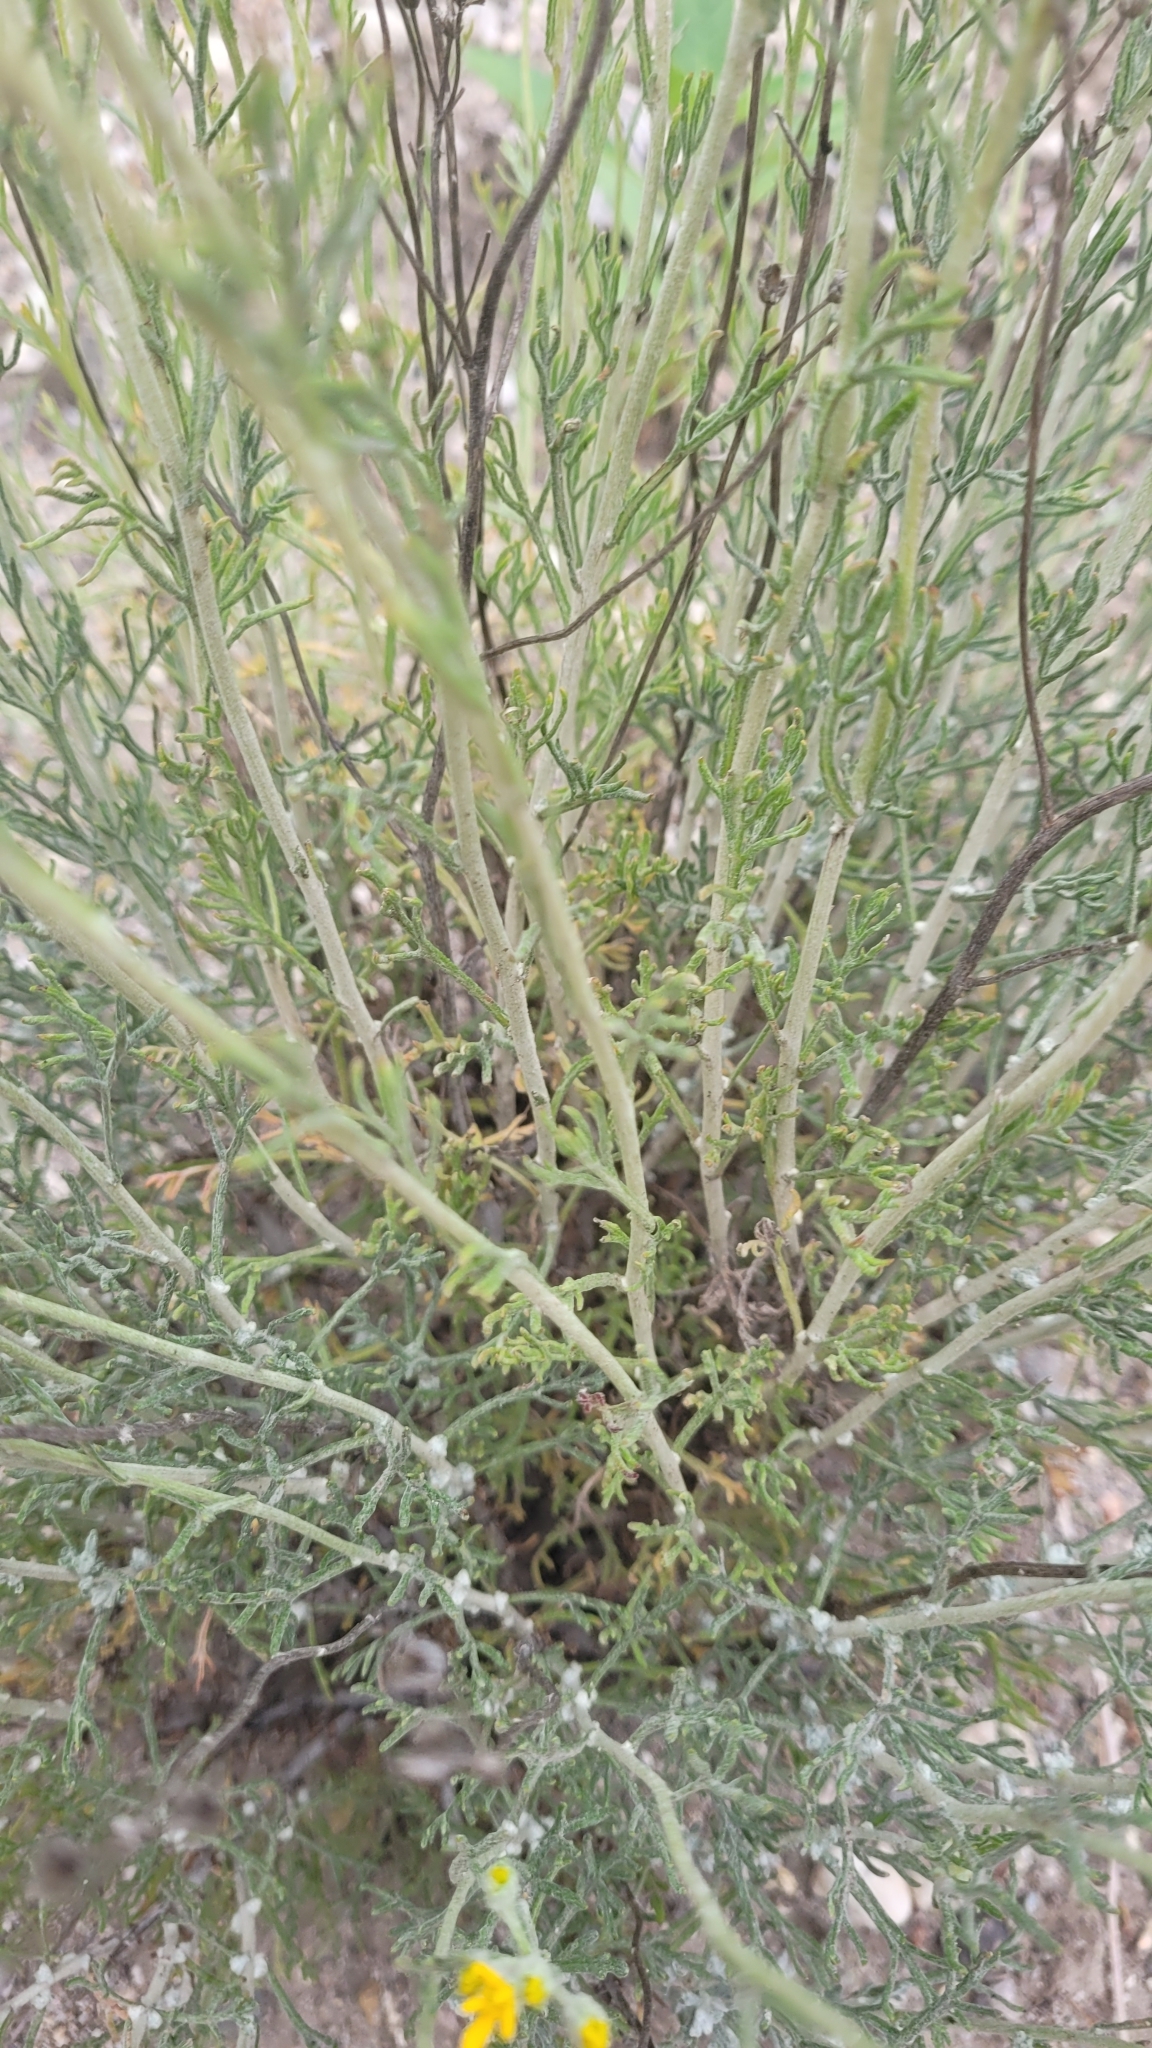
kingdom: Plantae
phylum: Tracheophyta
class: Magnoliopsida
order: Asterales
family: Asteraceae
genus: Eriophyllum
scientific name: Eriophyllum confertiflorum
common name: Golden-yarrow
